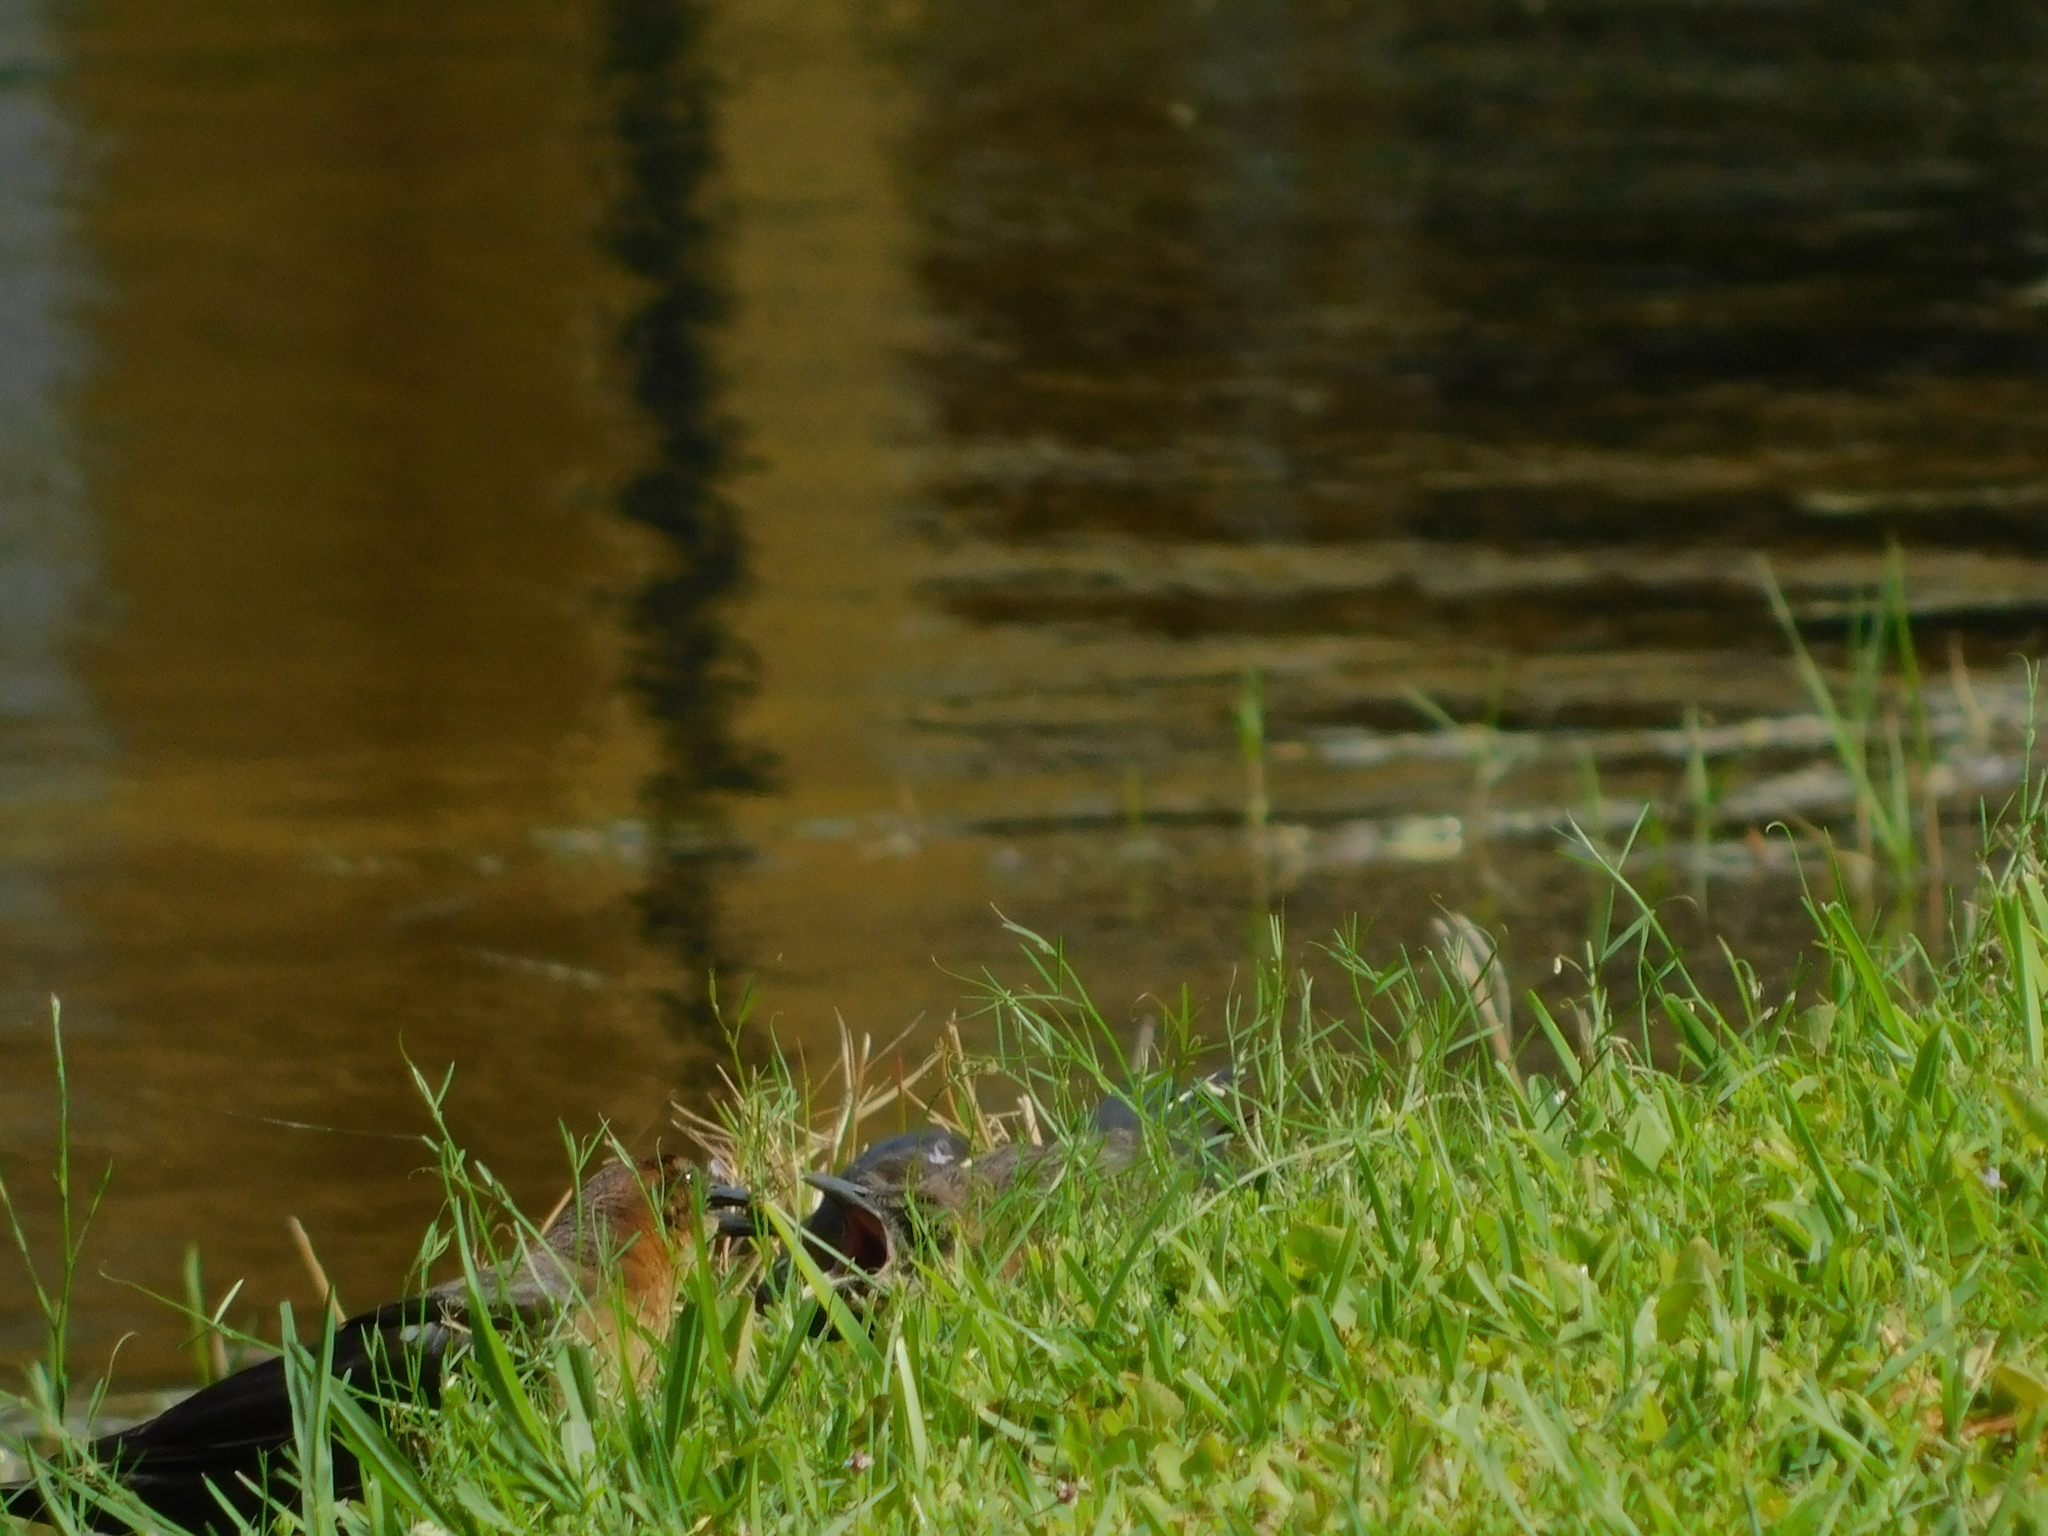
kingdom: Animalia
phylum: Chordata
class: Aves
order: Passeriformes
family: Icteridae
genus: Quiscalus
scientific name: Quiscalus major
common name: Boat-tailed grackle
